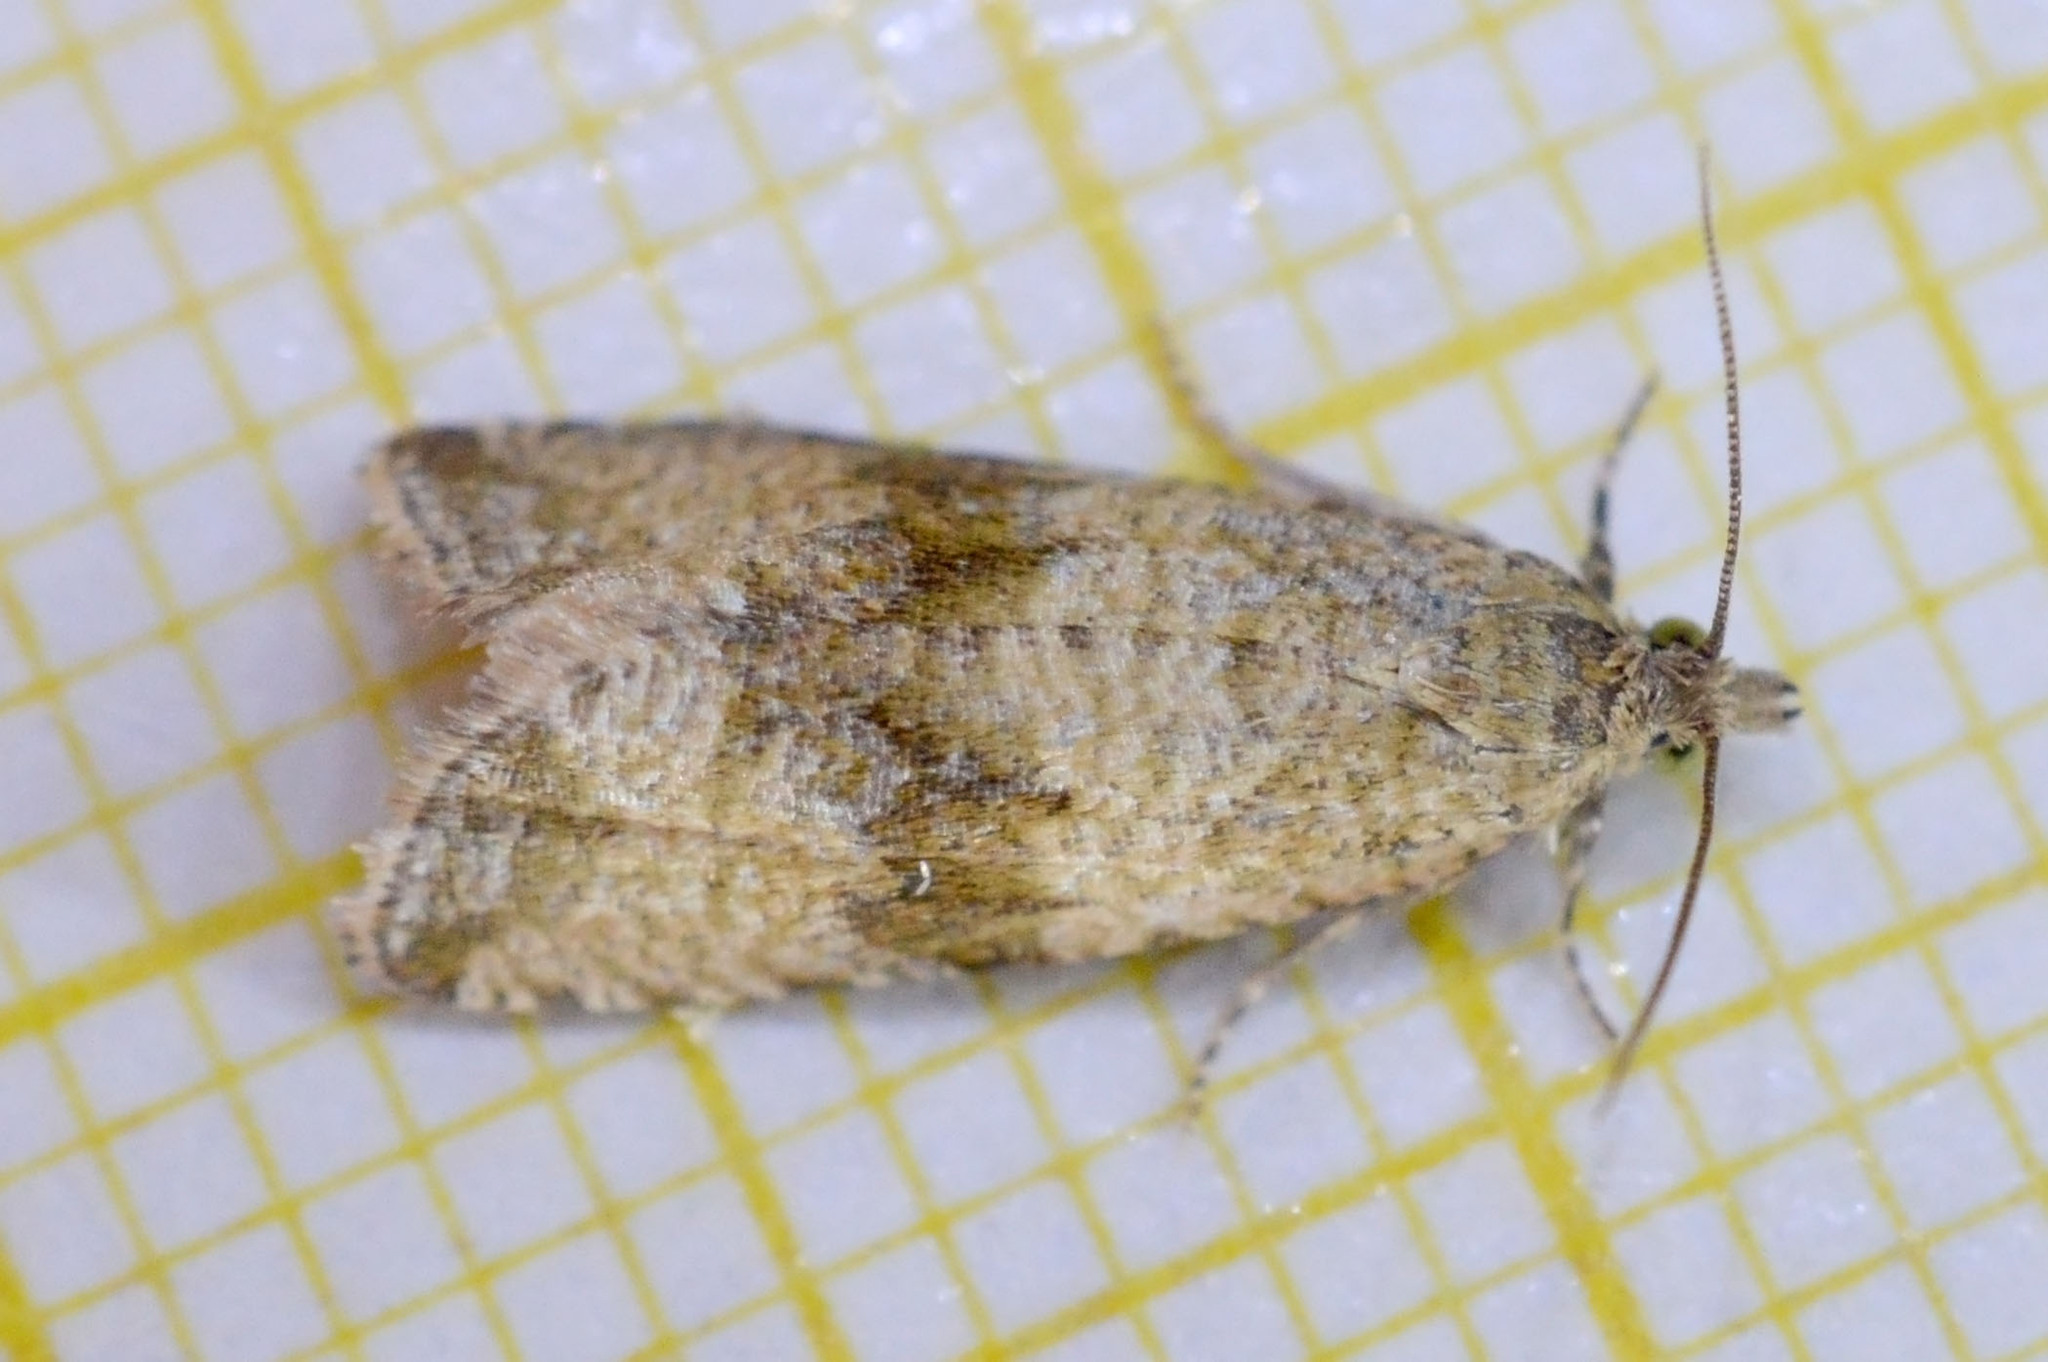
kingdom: Animalia
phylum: Arthropoda
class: Insecta
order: Lepidoptera
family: Tortricidae
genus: Celypha
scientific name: Celypha striana
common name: Barred marble
